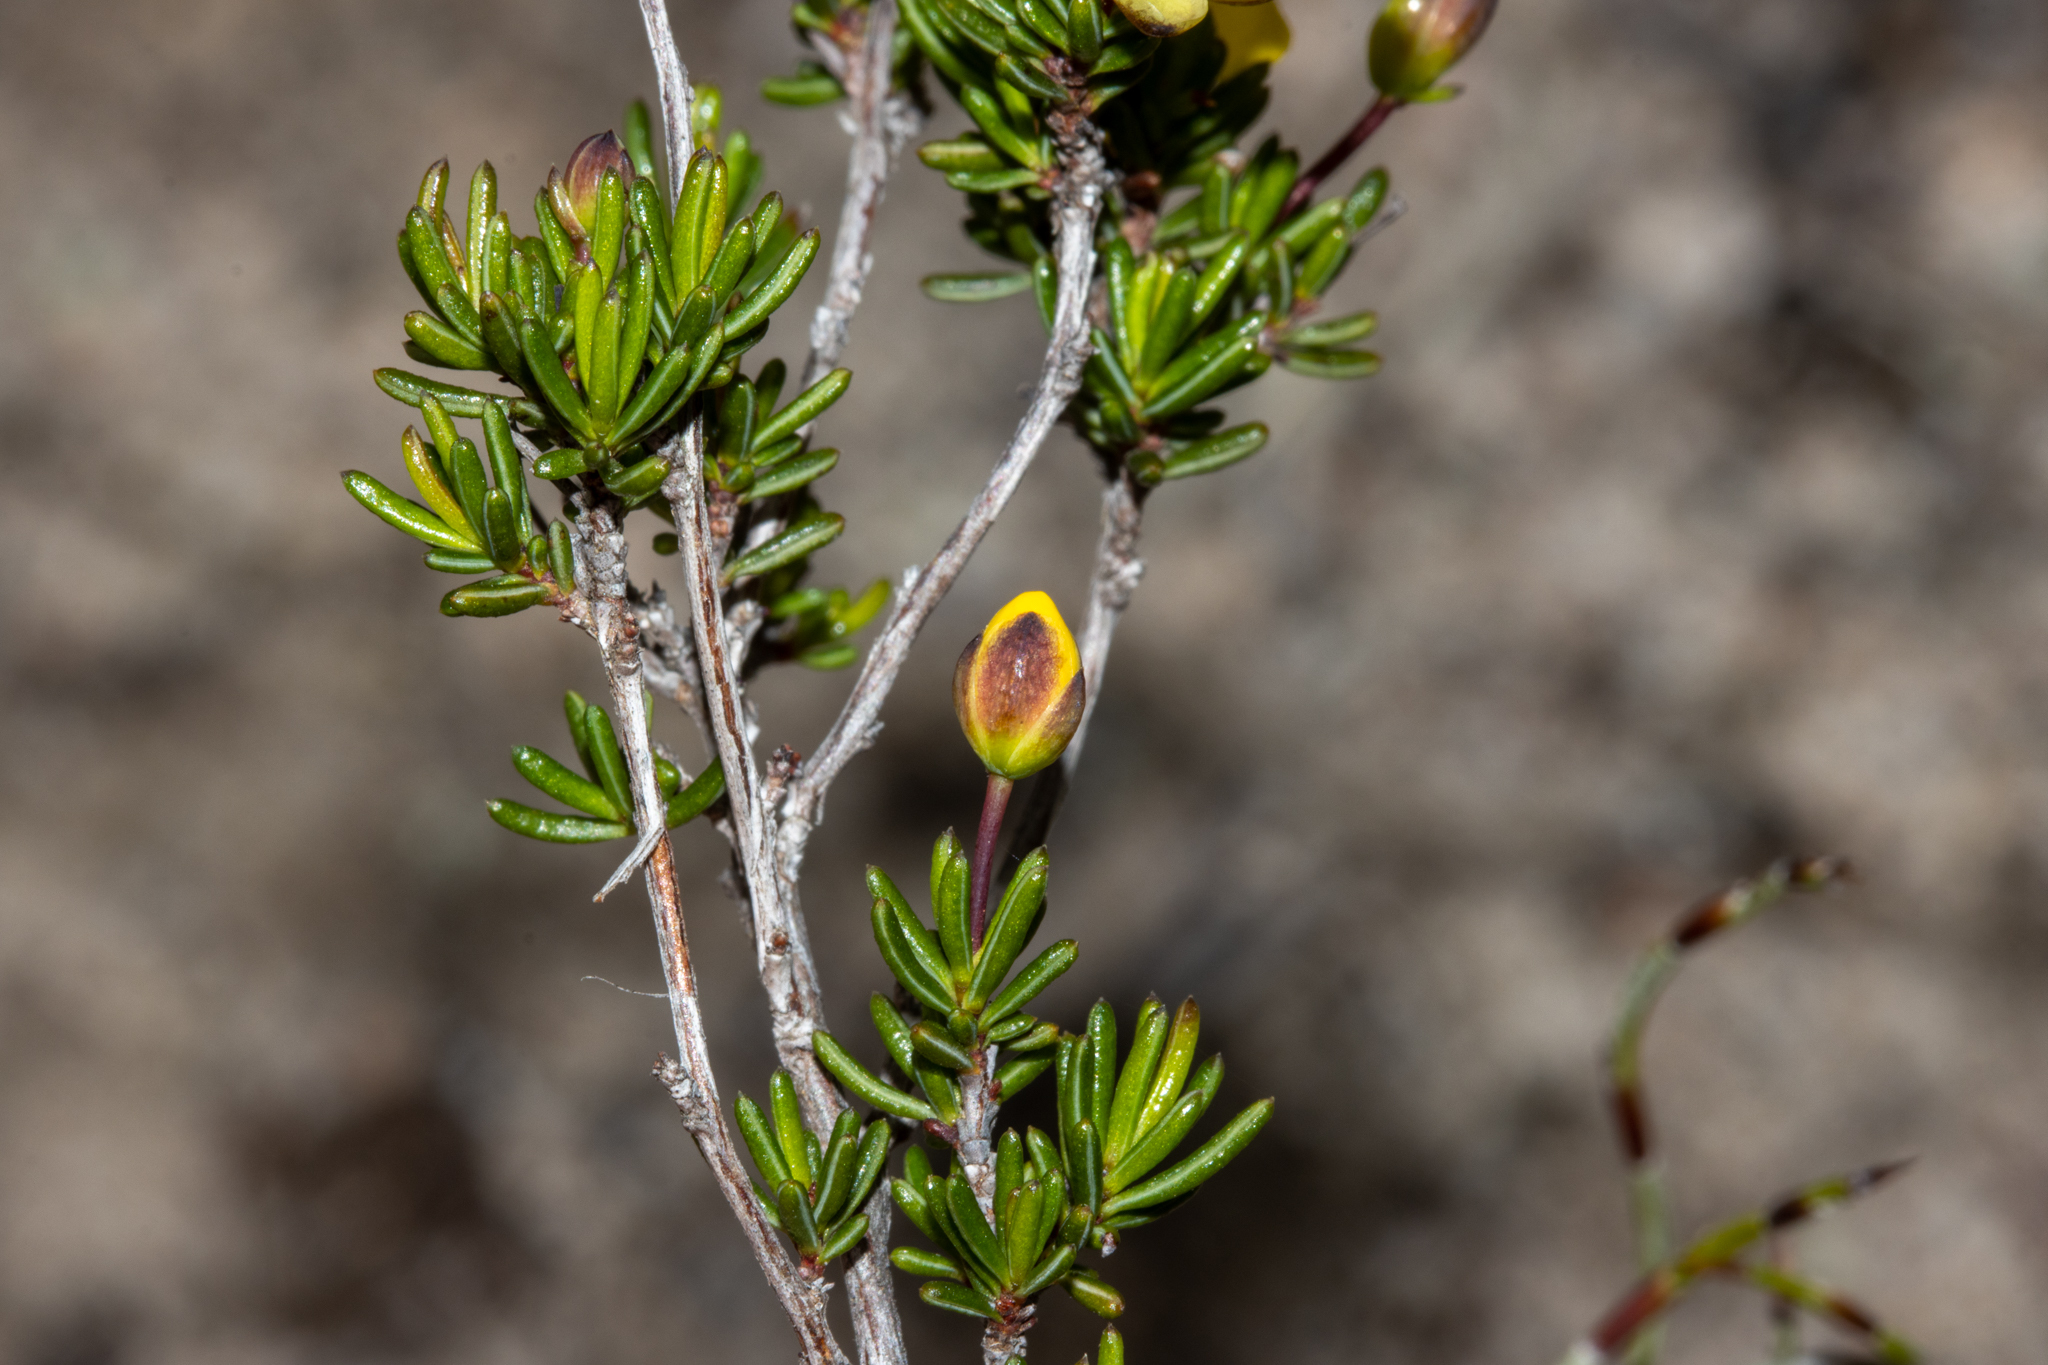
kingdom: Plantae
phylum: Tracheophyta
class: Magnoliopsida
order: Dilleniales
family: Dilleniaceae
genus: Hibbertia
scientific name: Hibbertia gracilipes
